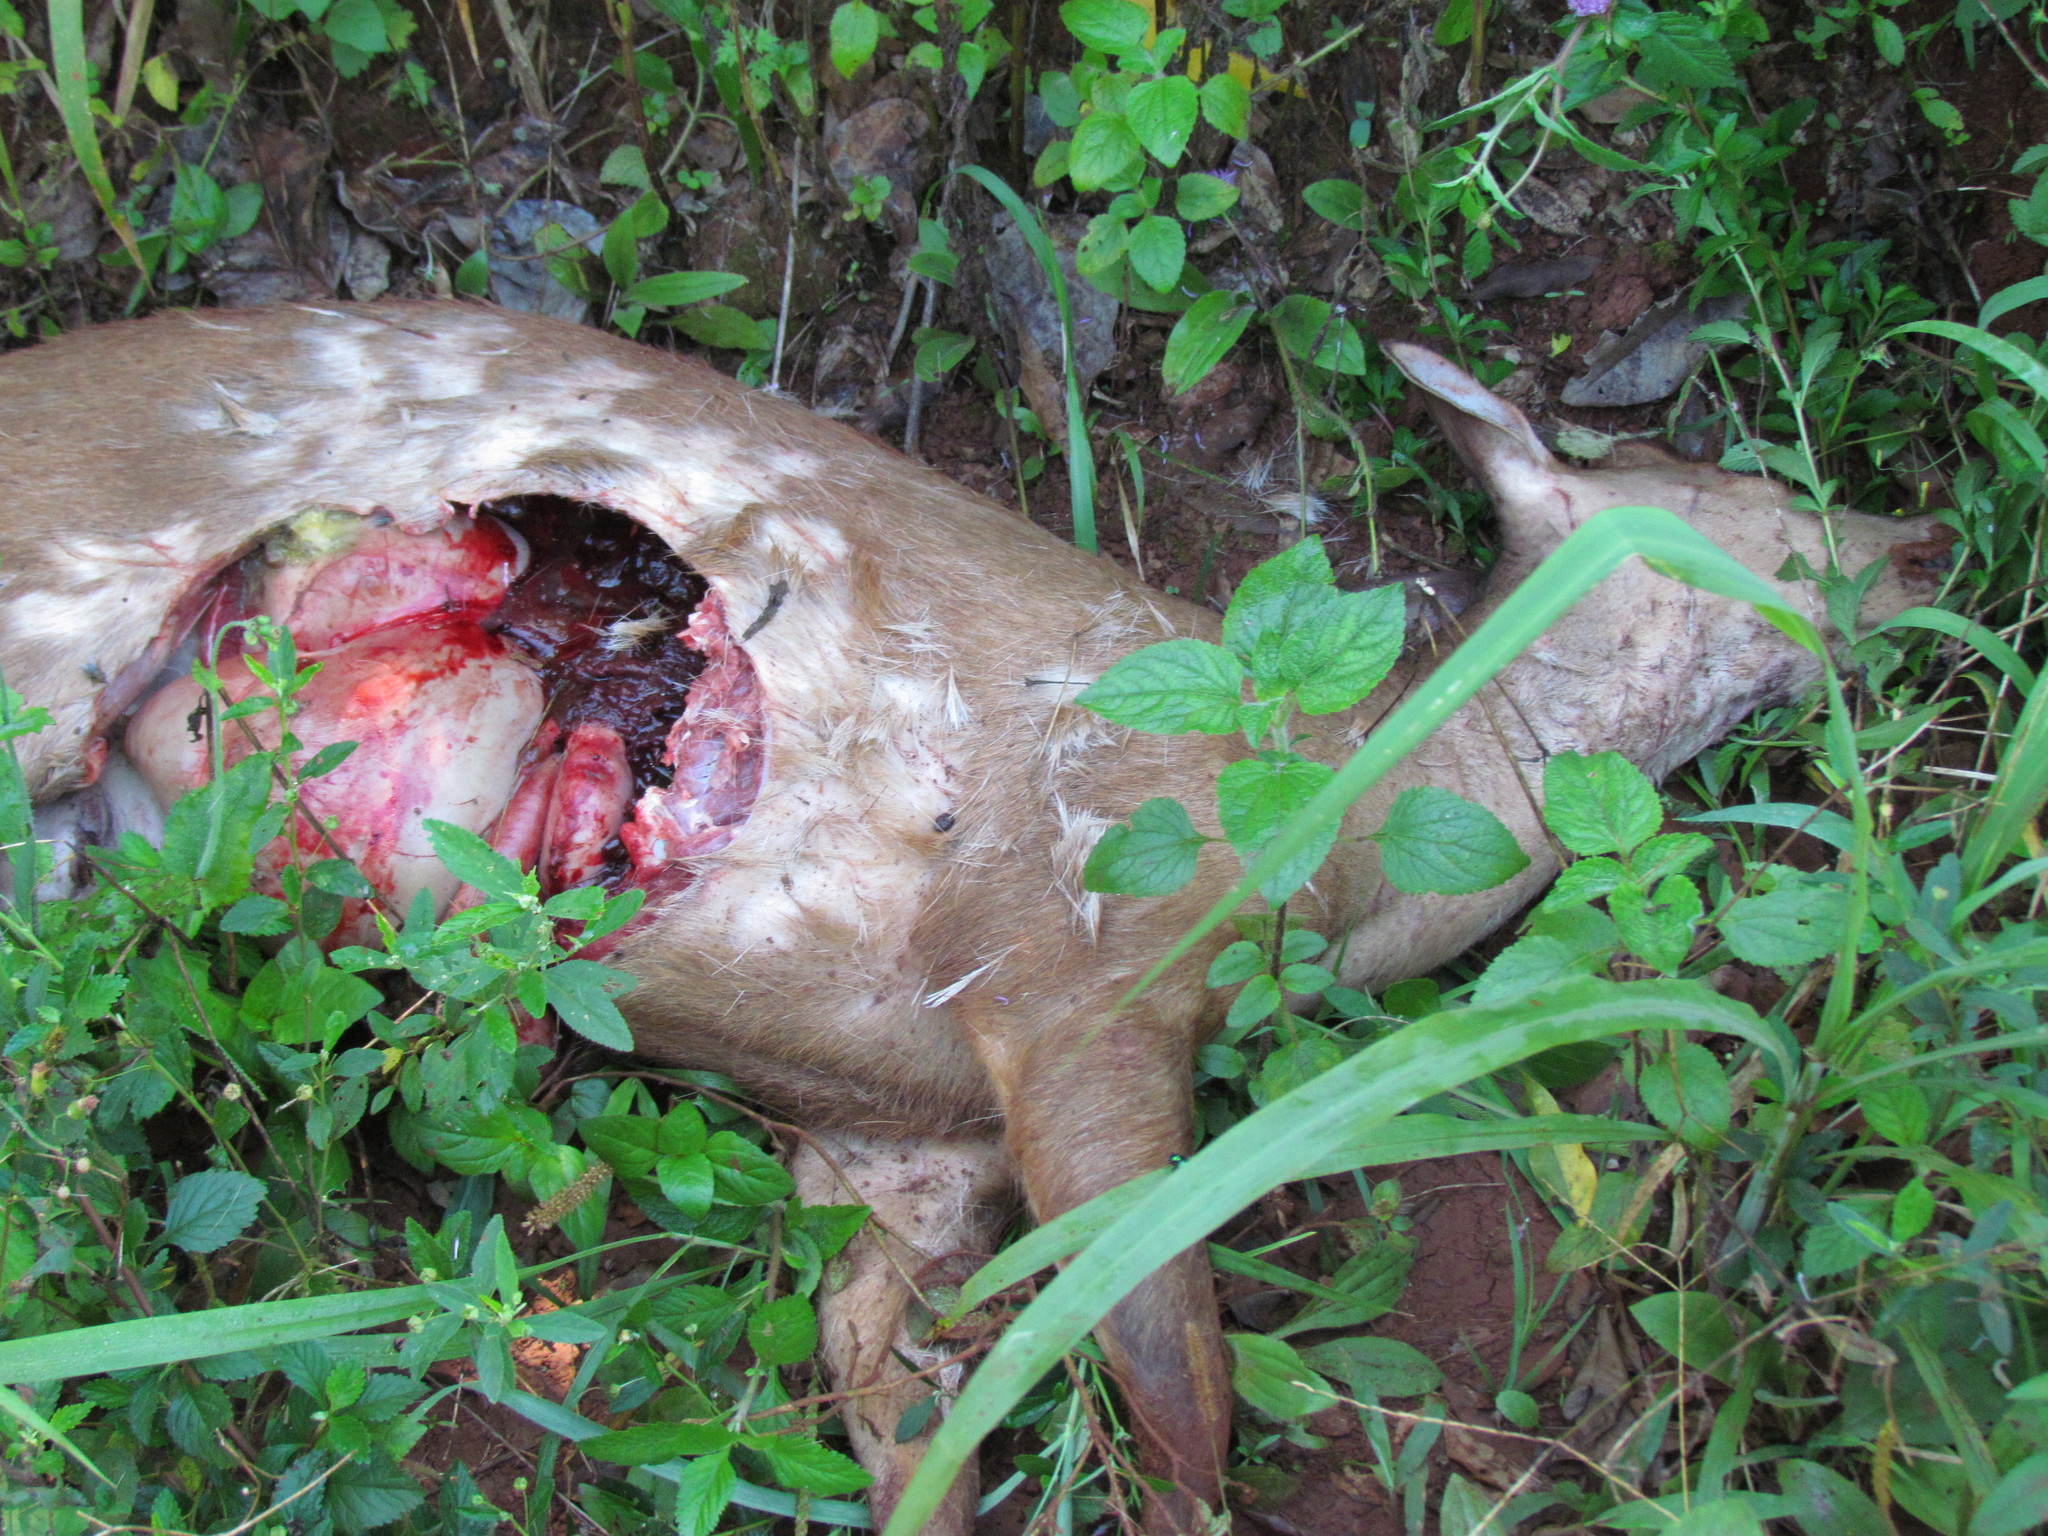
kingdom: Animalia
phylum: Chordata
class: Mammalia
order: Artiodactyla
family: Cervidae
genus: Mazama
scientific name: Mazama americana
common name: Red brocket
